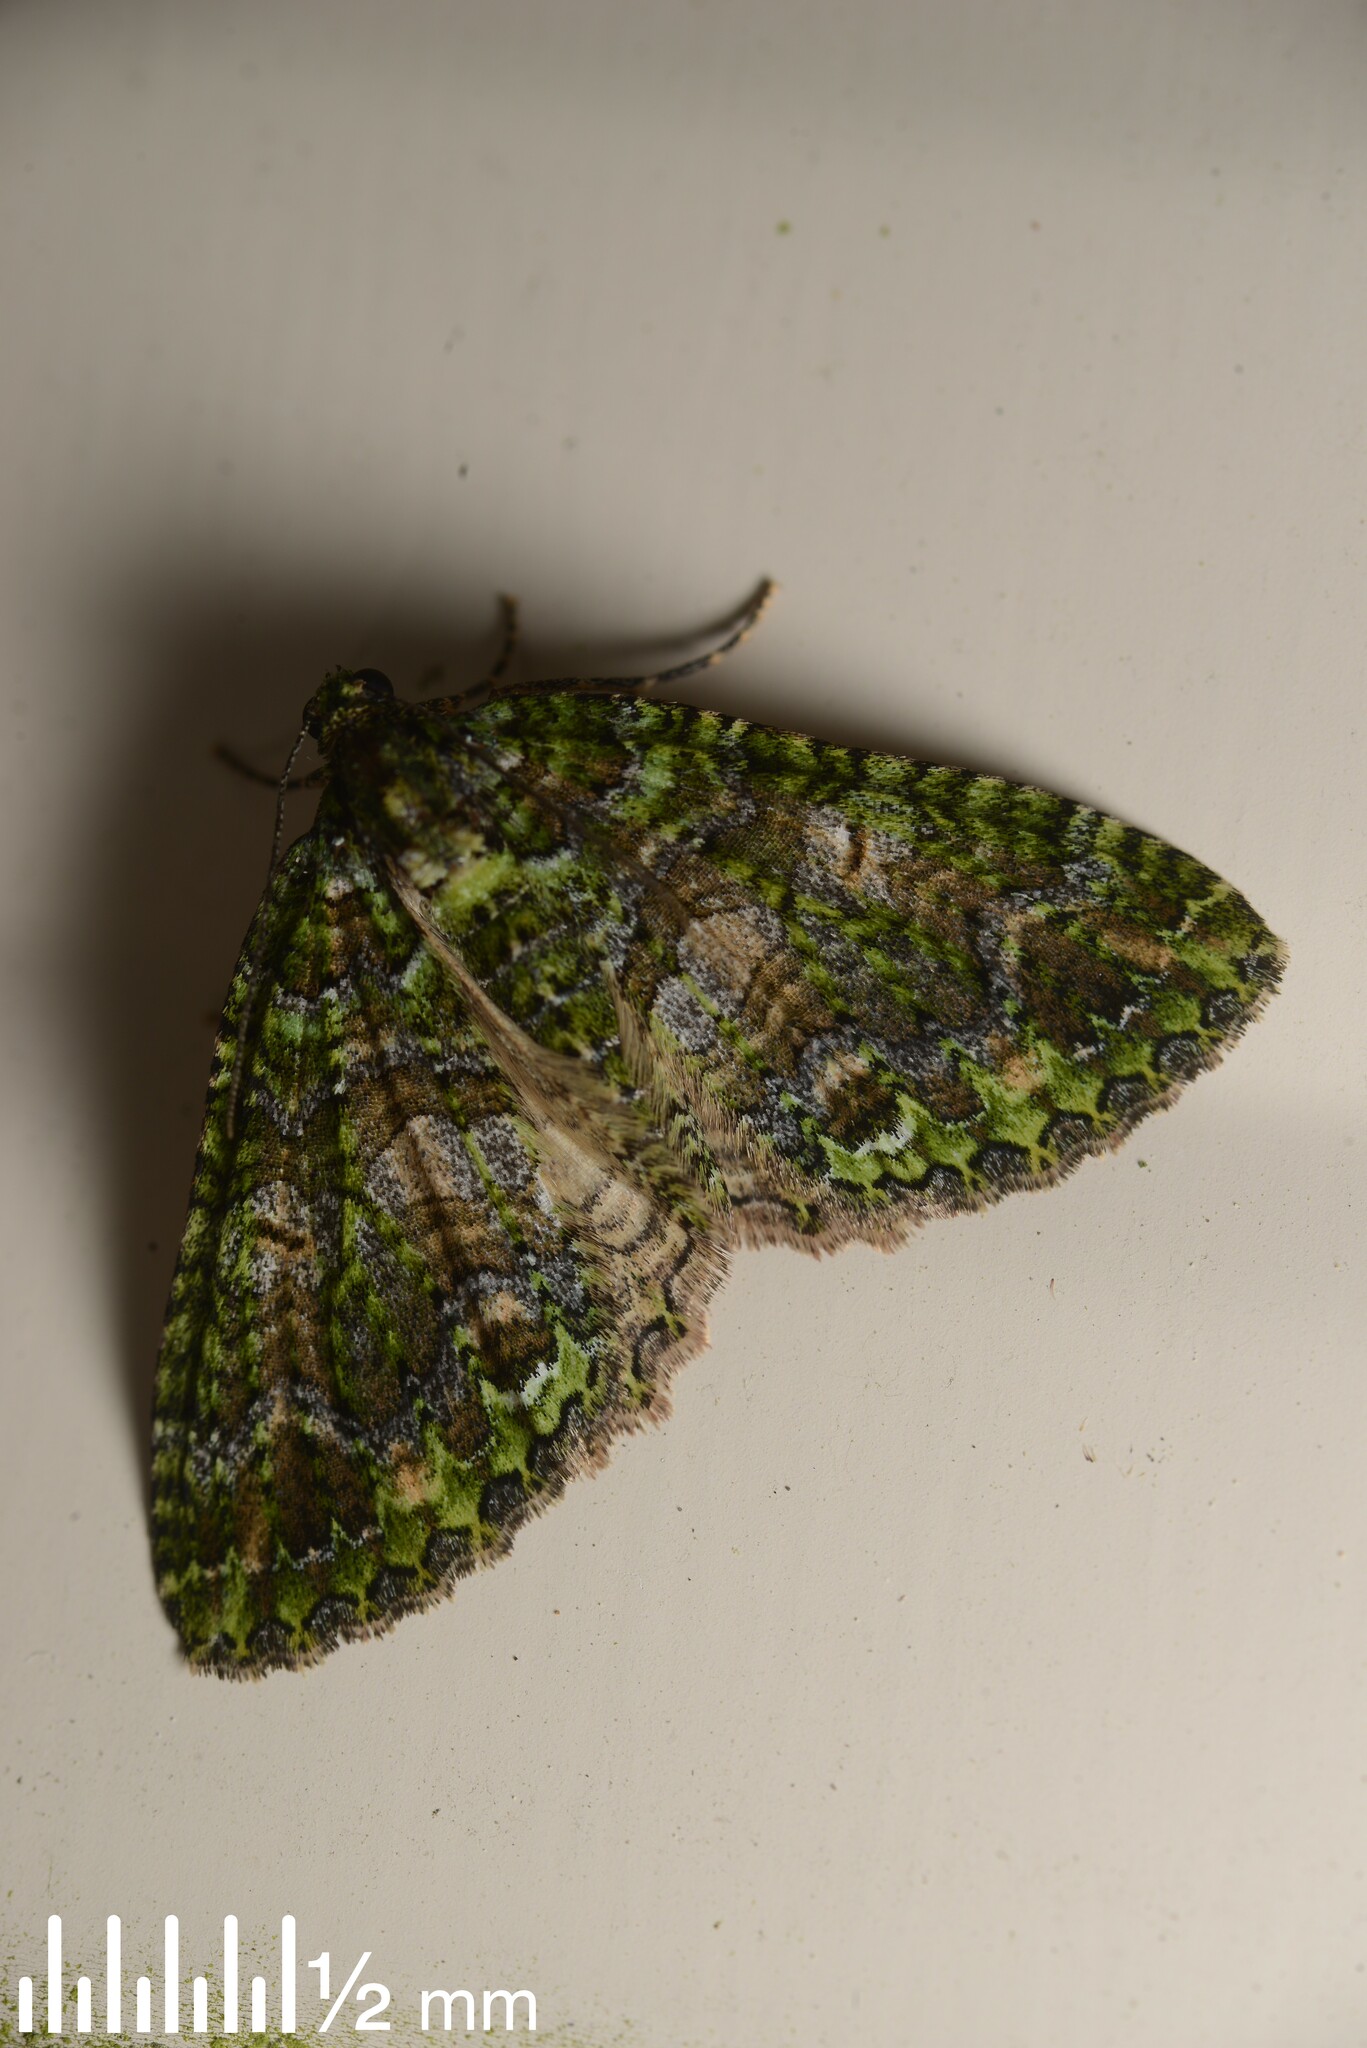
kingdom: Animalia
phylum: Arthropoda
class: Insecta
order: Lepidoptera
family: Geometridae
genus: Austrocidaria
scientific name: Austrocidaria similata
